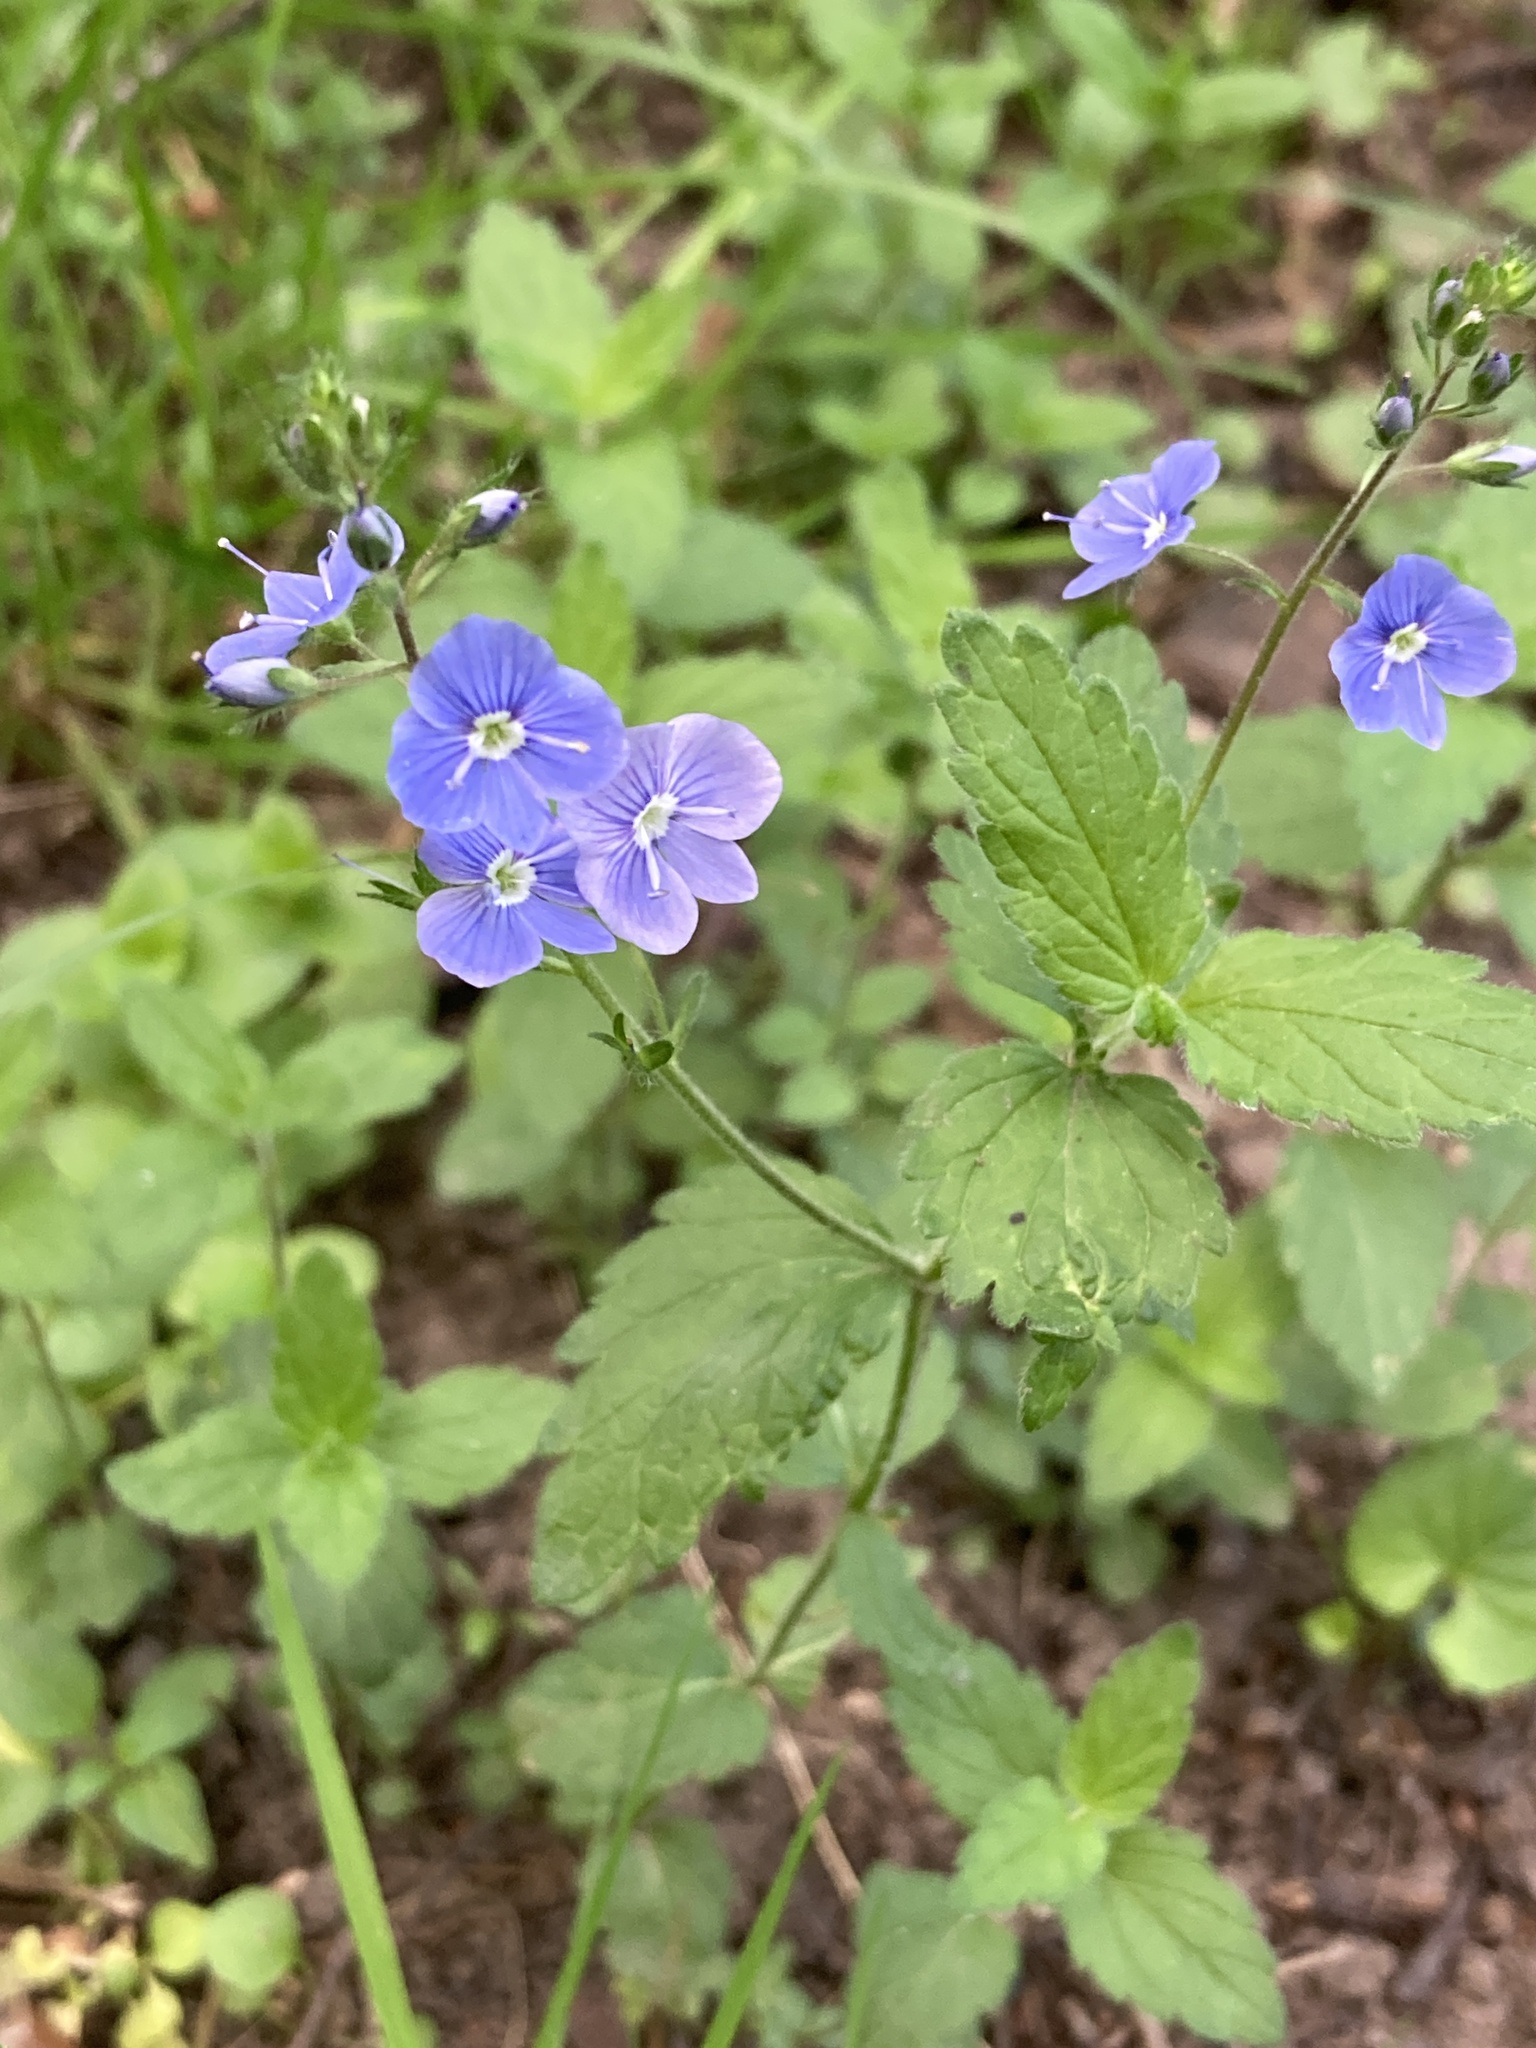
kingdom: Plantae
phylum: Tracheophyta
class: Magnoliopsida
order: Lamiales
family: Plantaginaceae
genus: Veronica
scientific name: Veronica chamaedrys
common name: Germander speedwell
